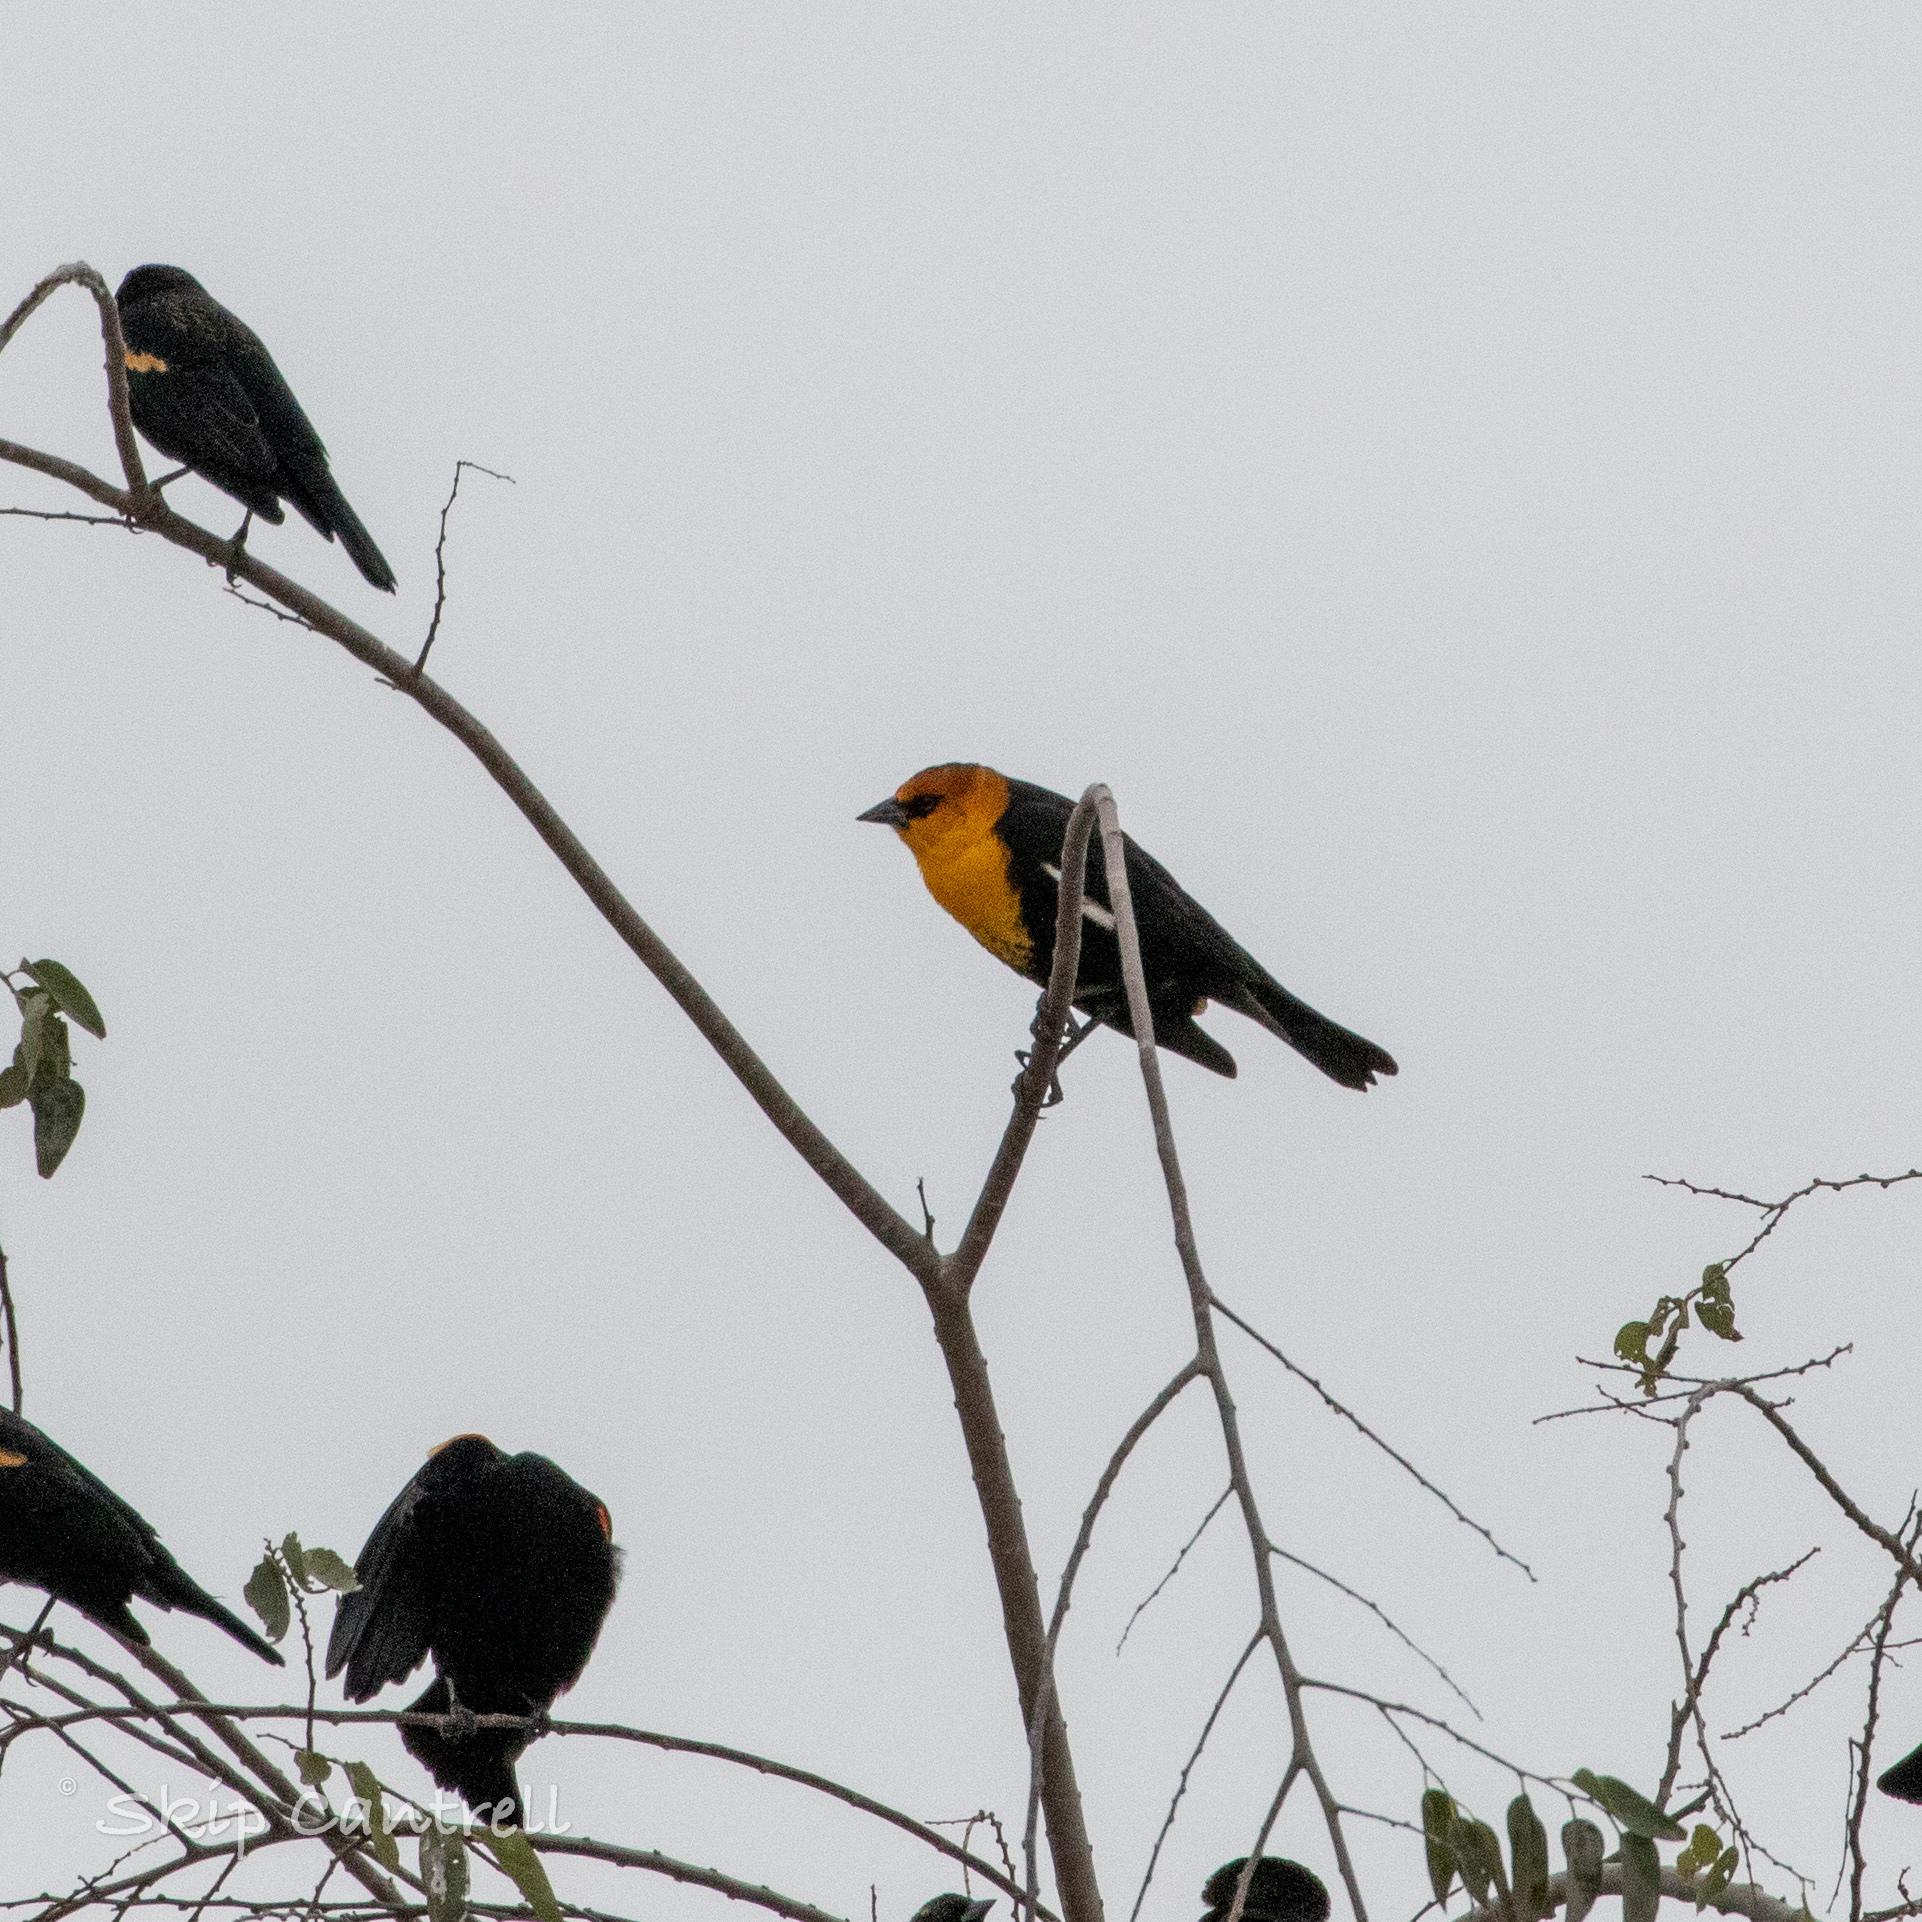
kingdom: Animalia
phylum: Chordata
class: Aves
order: Passeriformes
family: Icteridae
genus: Xanthocephalus
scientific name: Xanthocephalus xanthocephalus
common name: Yellow-headed blackbird
